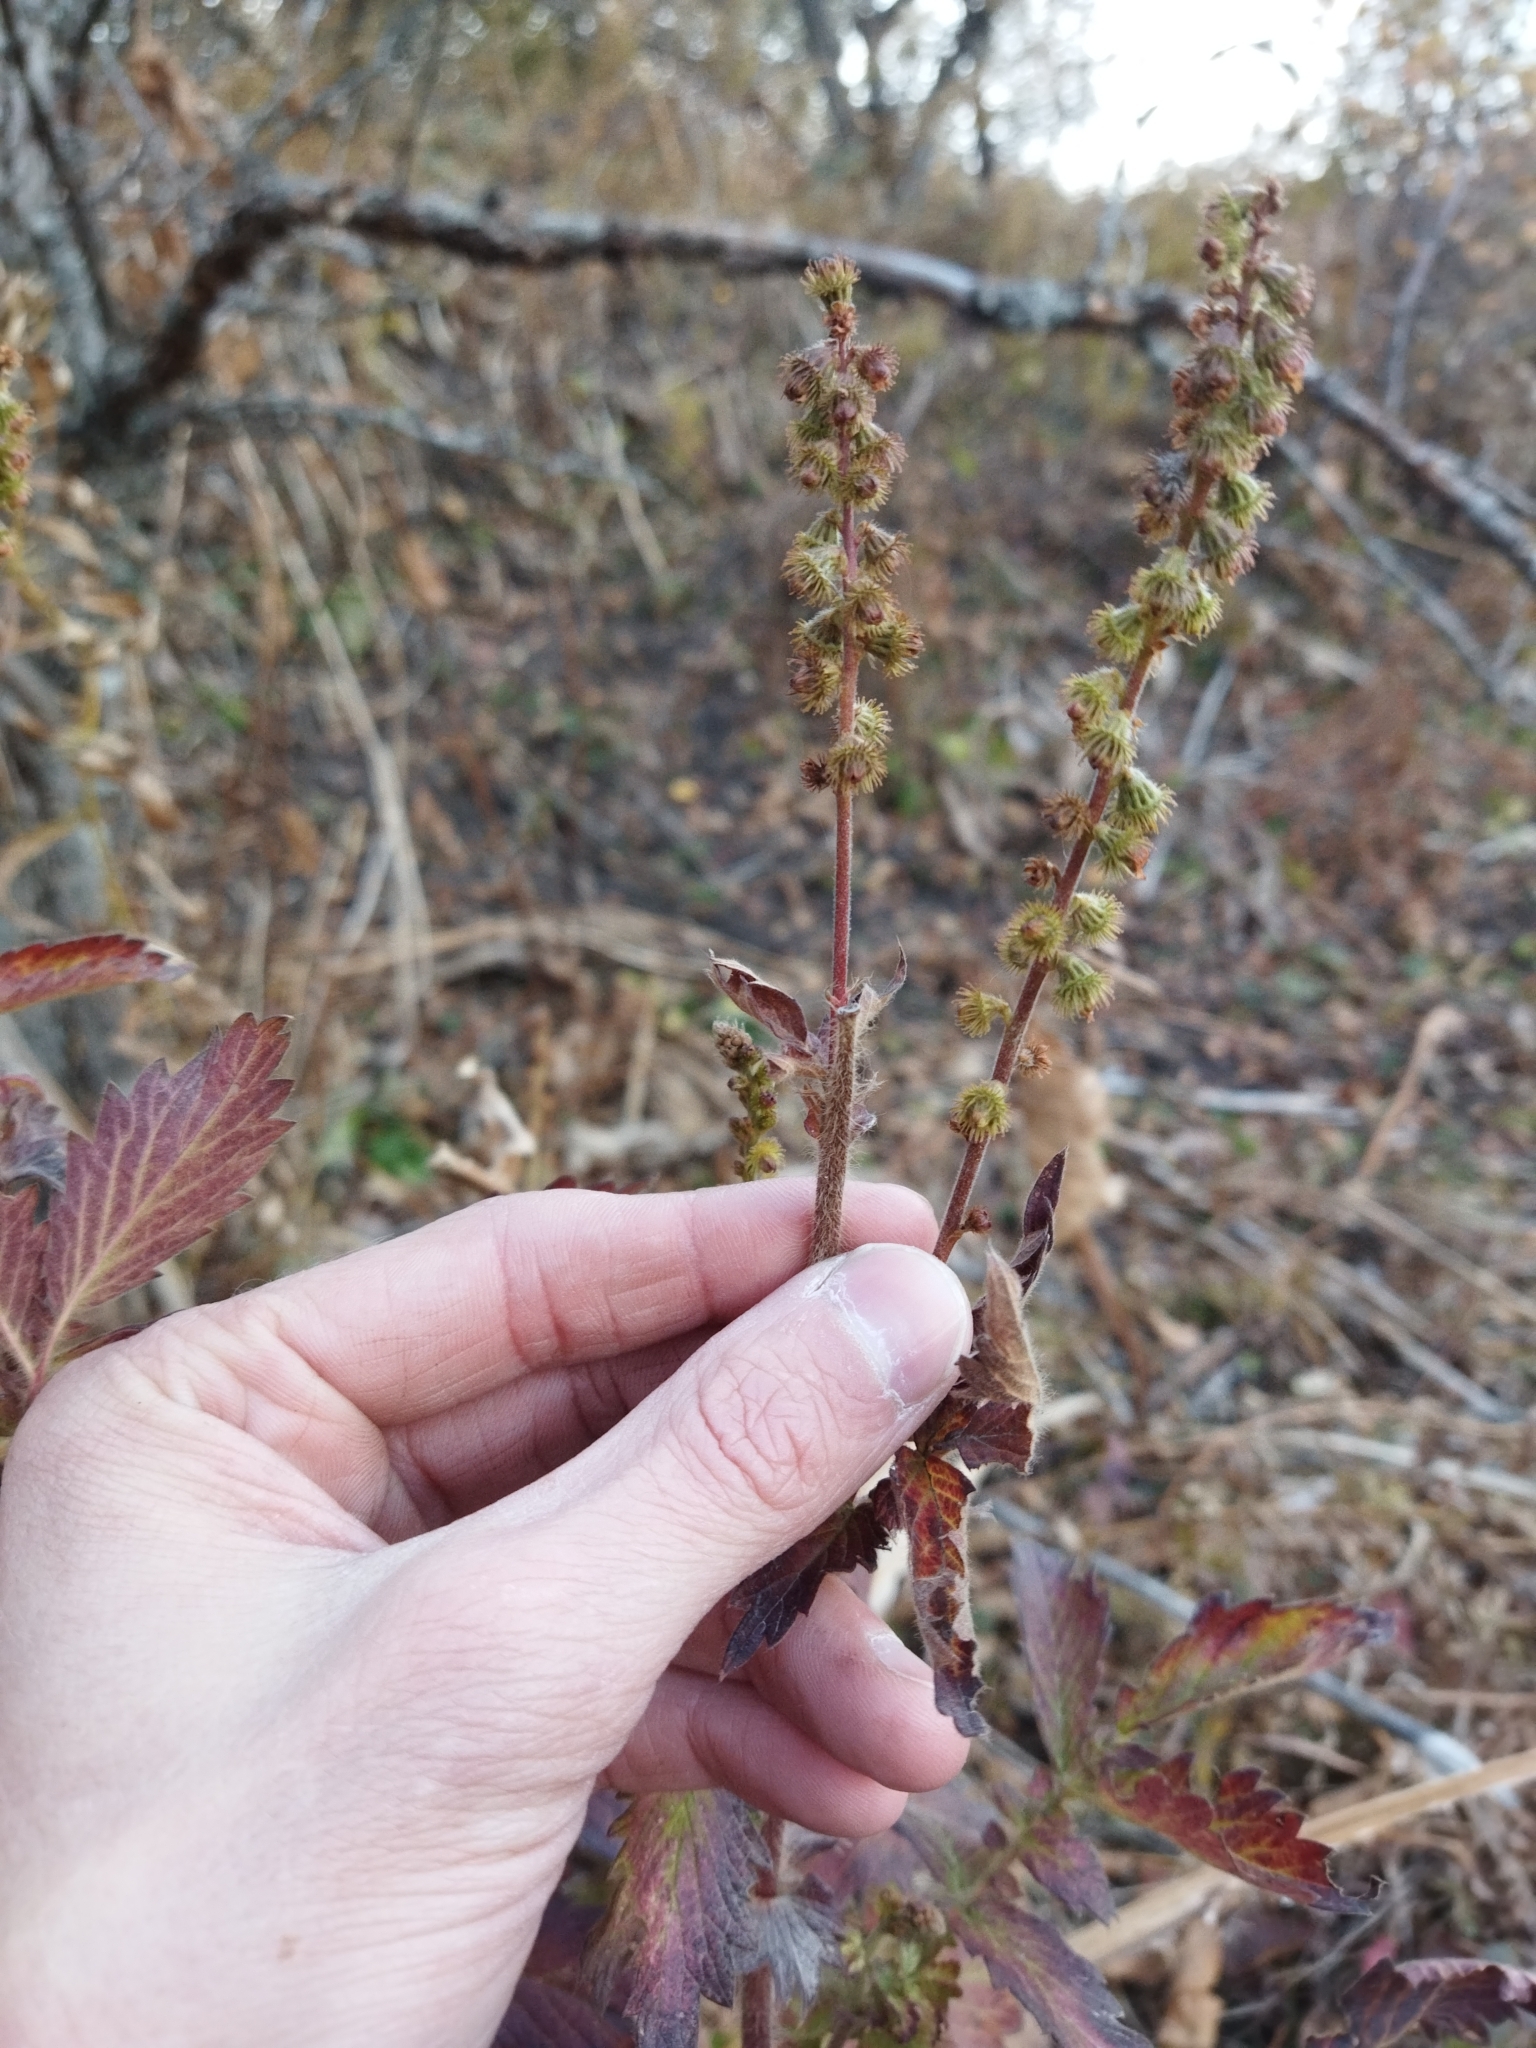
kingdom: Plantae
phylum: Tracheophyta
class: Magnoliopsida
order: Rosales
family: Rosaceae
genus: Agrimonia
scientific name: Agrimonia eupatoria
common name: Agrimony
